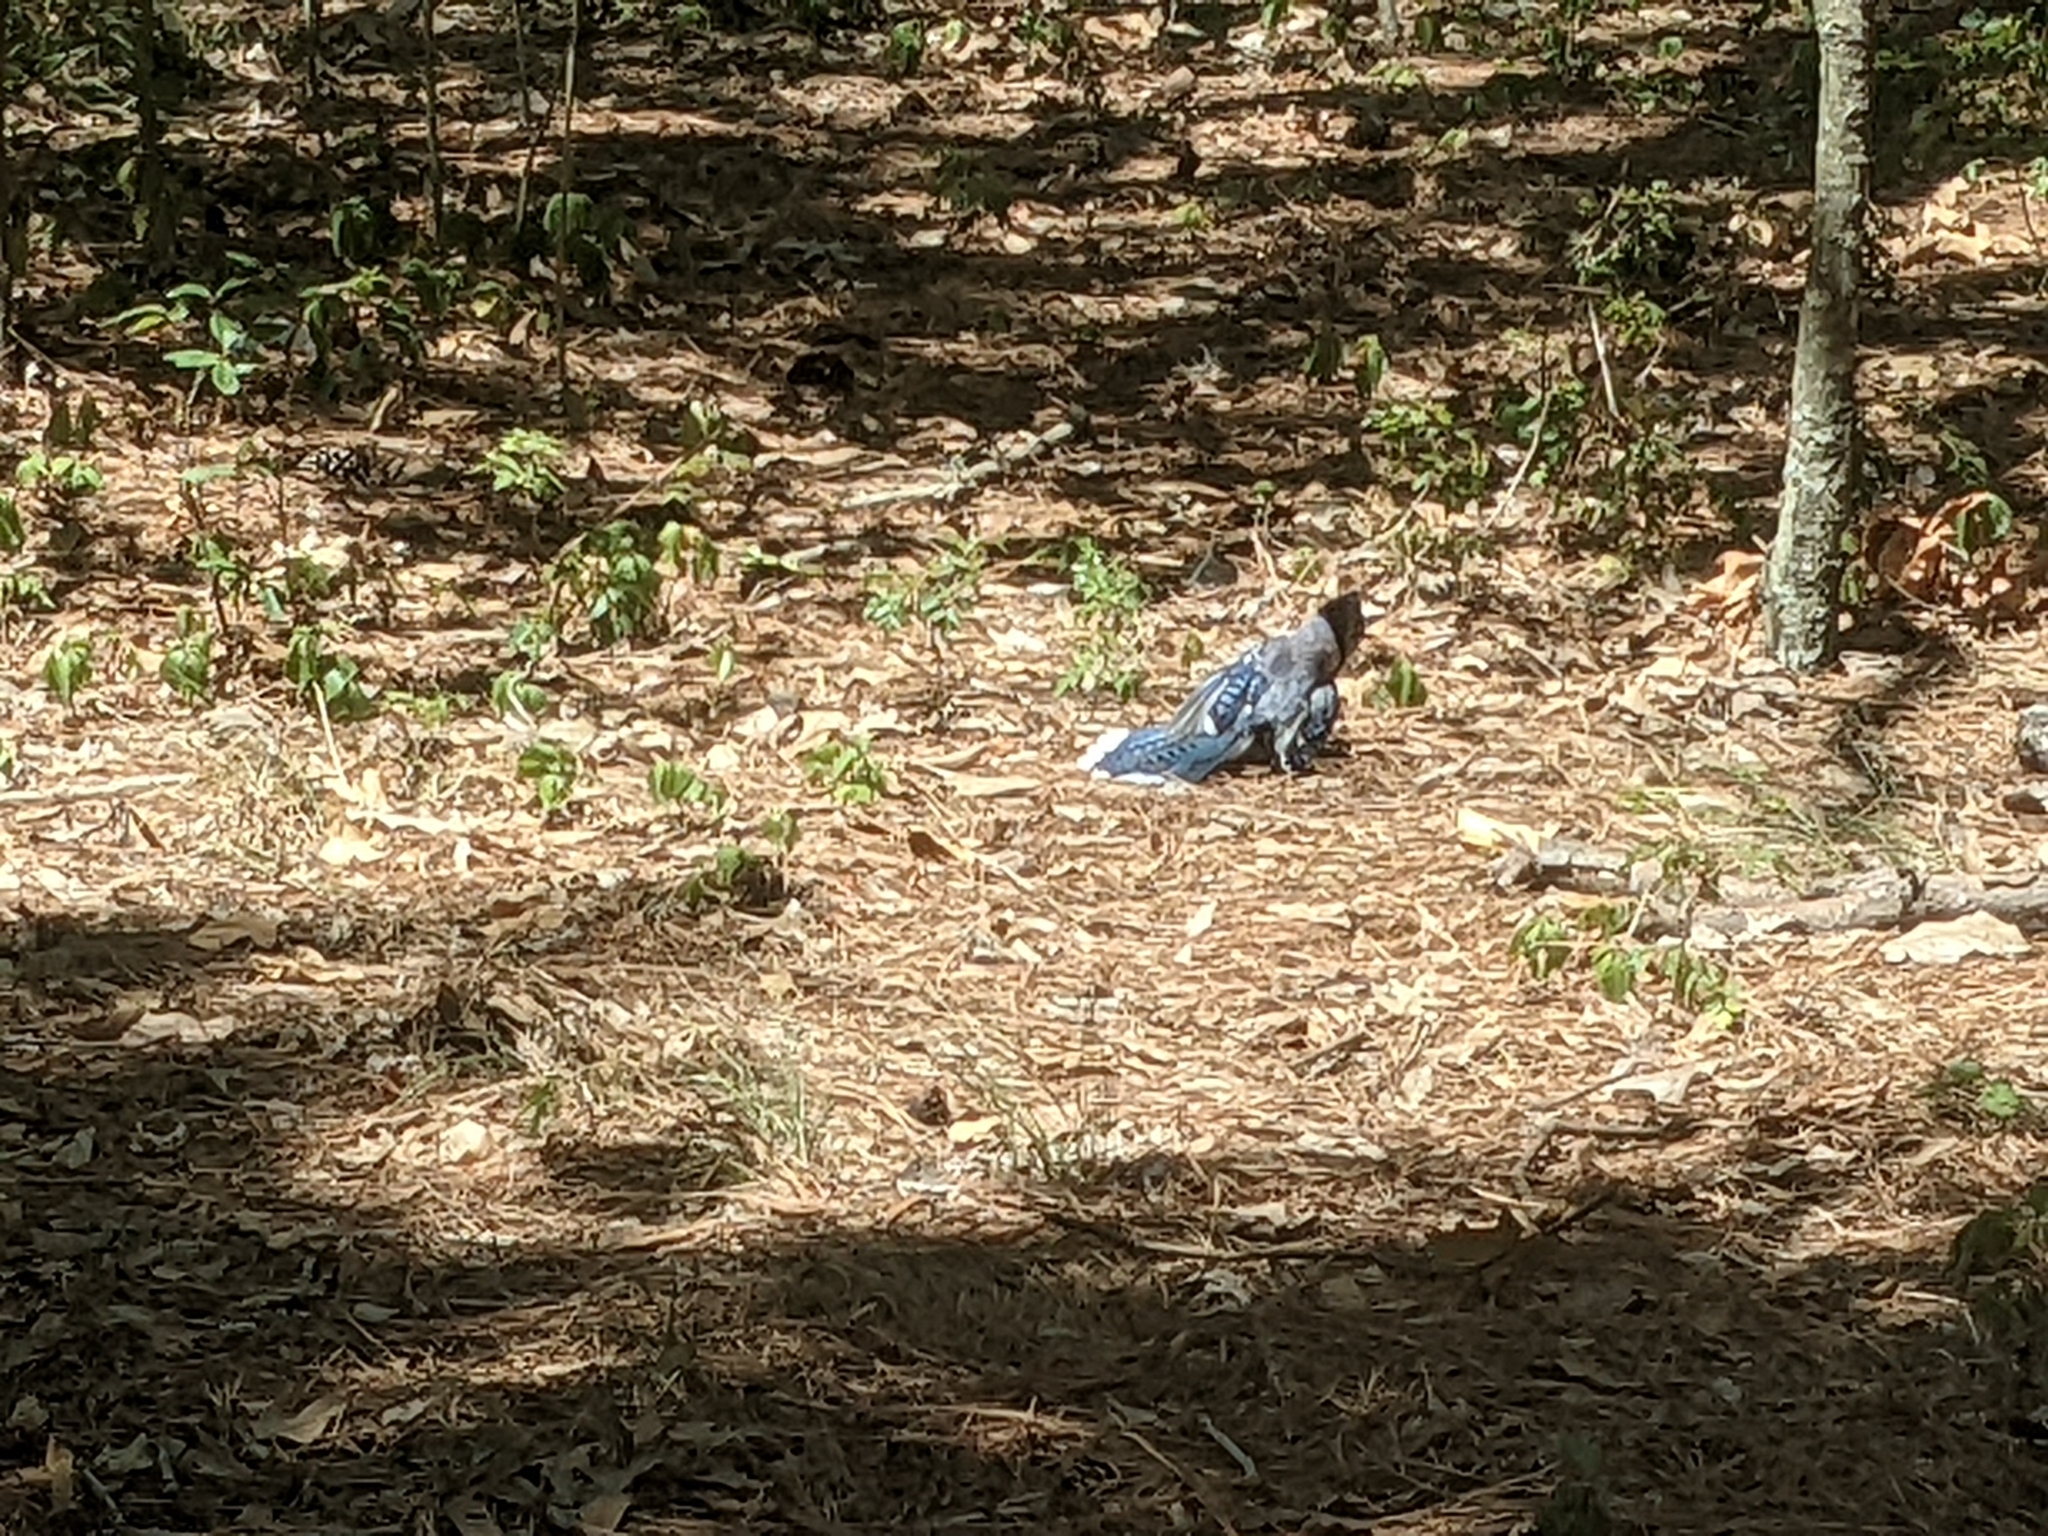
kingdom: Animalia
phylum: Chordata
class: Aves
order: Passeriformes
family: Corvidae
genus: Cyanocitta
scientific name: Cyanocitta cristata
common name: Blue jay
